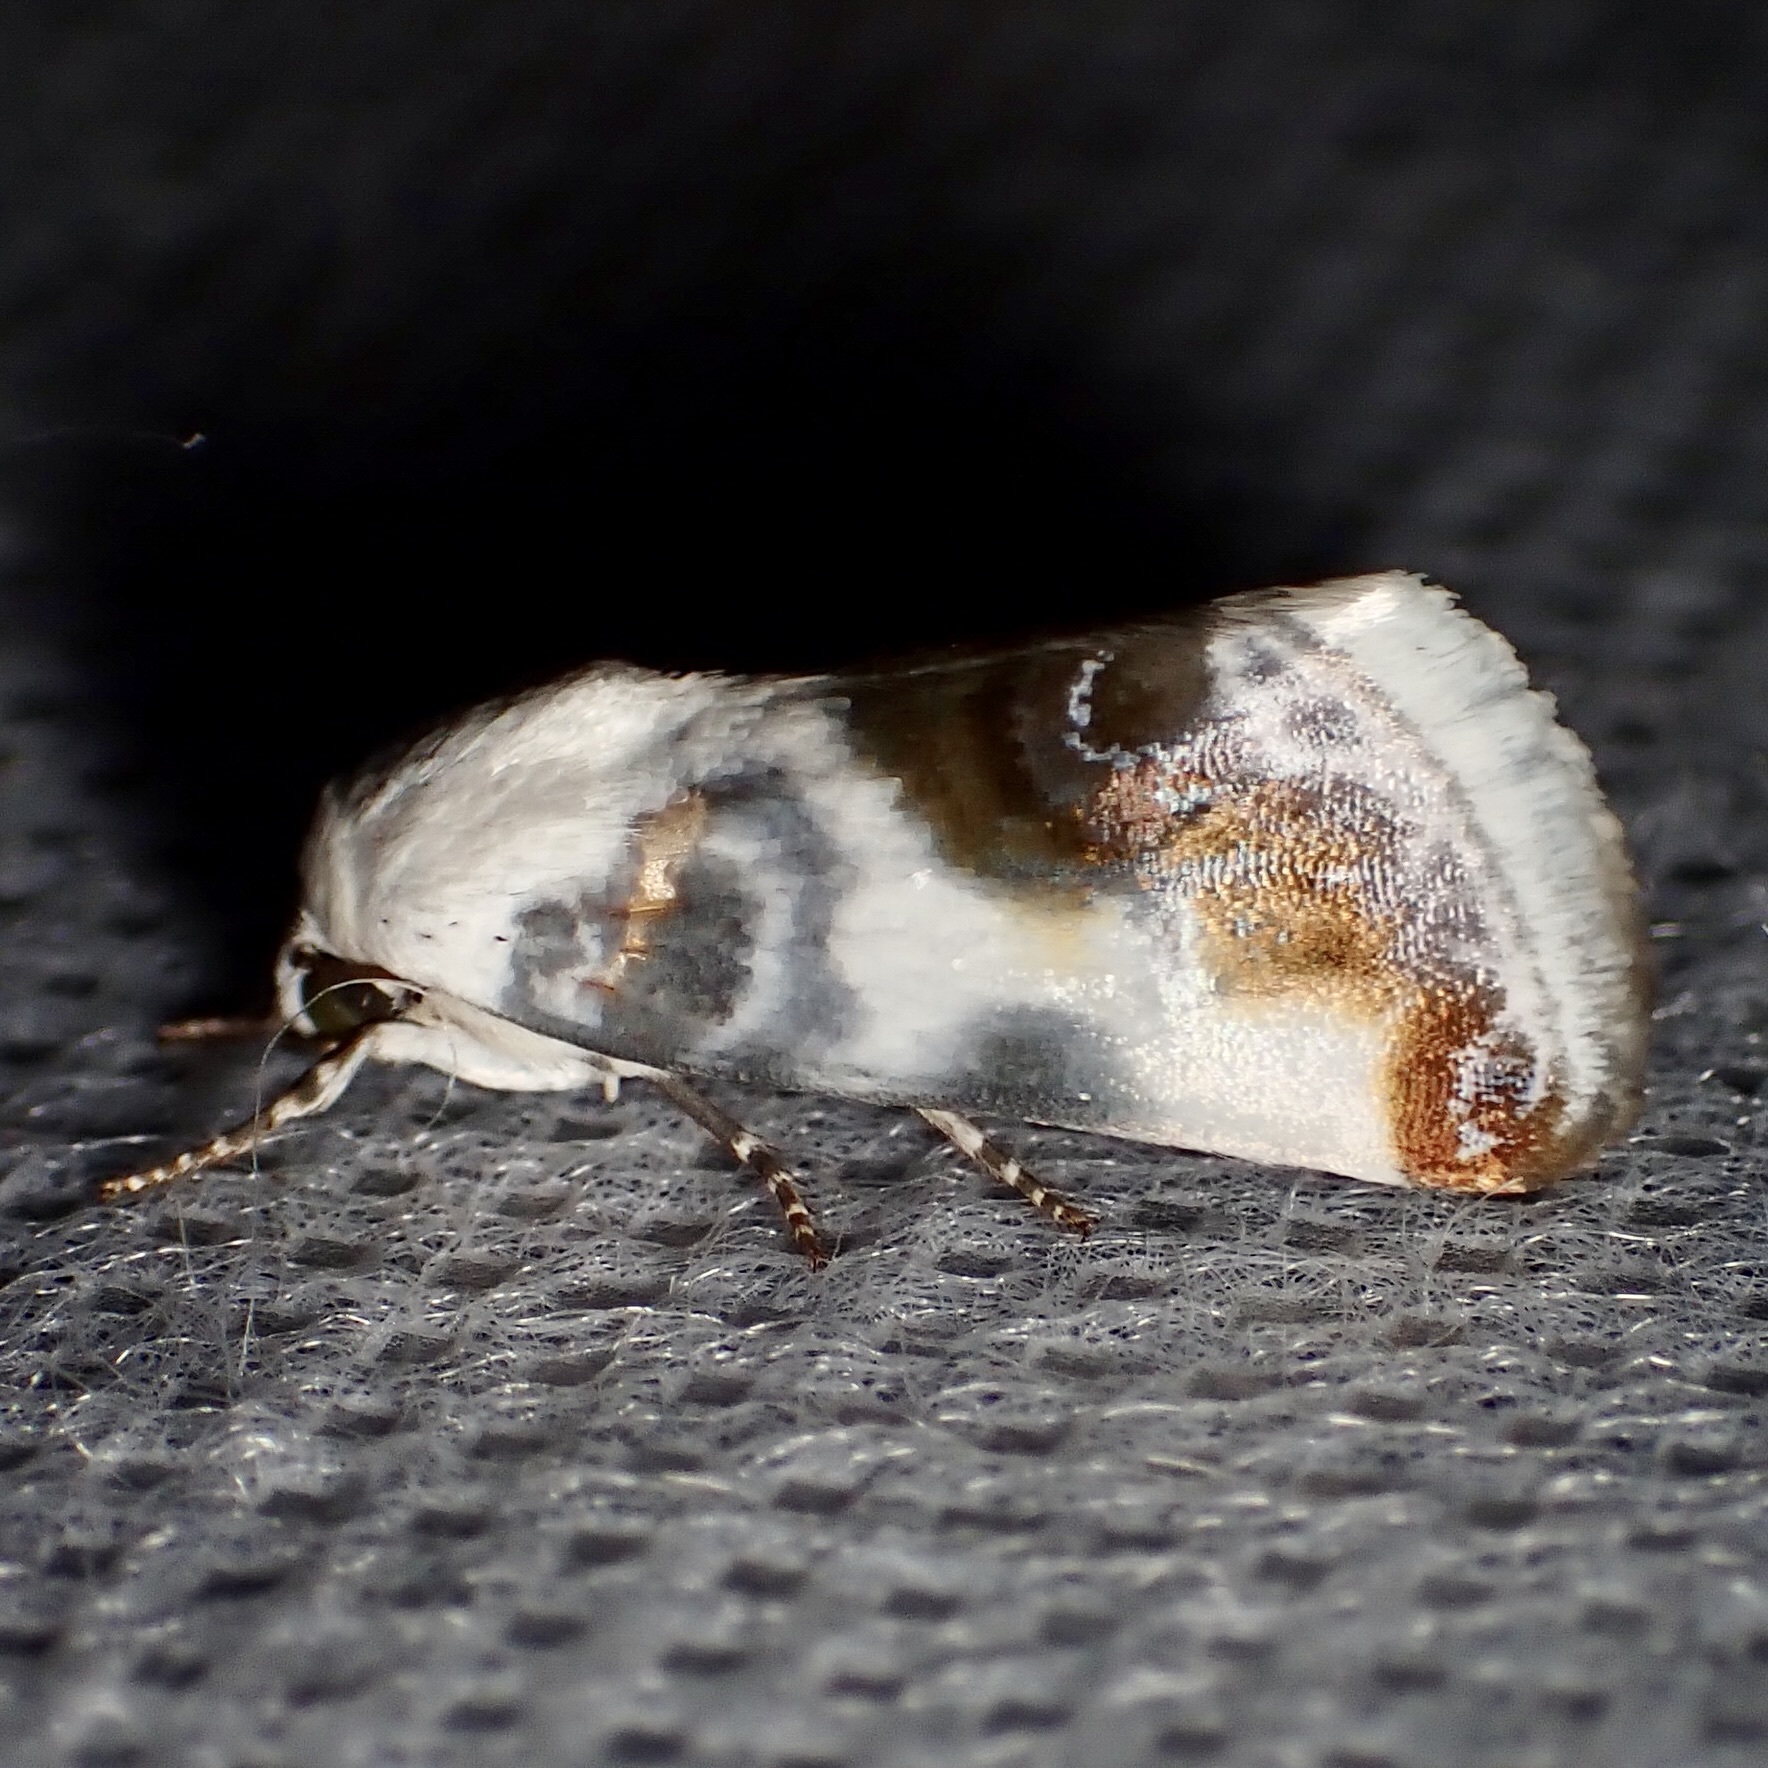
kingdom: Animalia
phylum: Arthropoda
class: Insecta
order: Lepidoptera
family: Noctuidae
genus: Acontia
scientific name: Acontia chea
